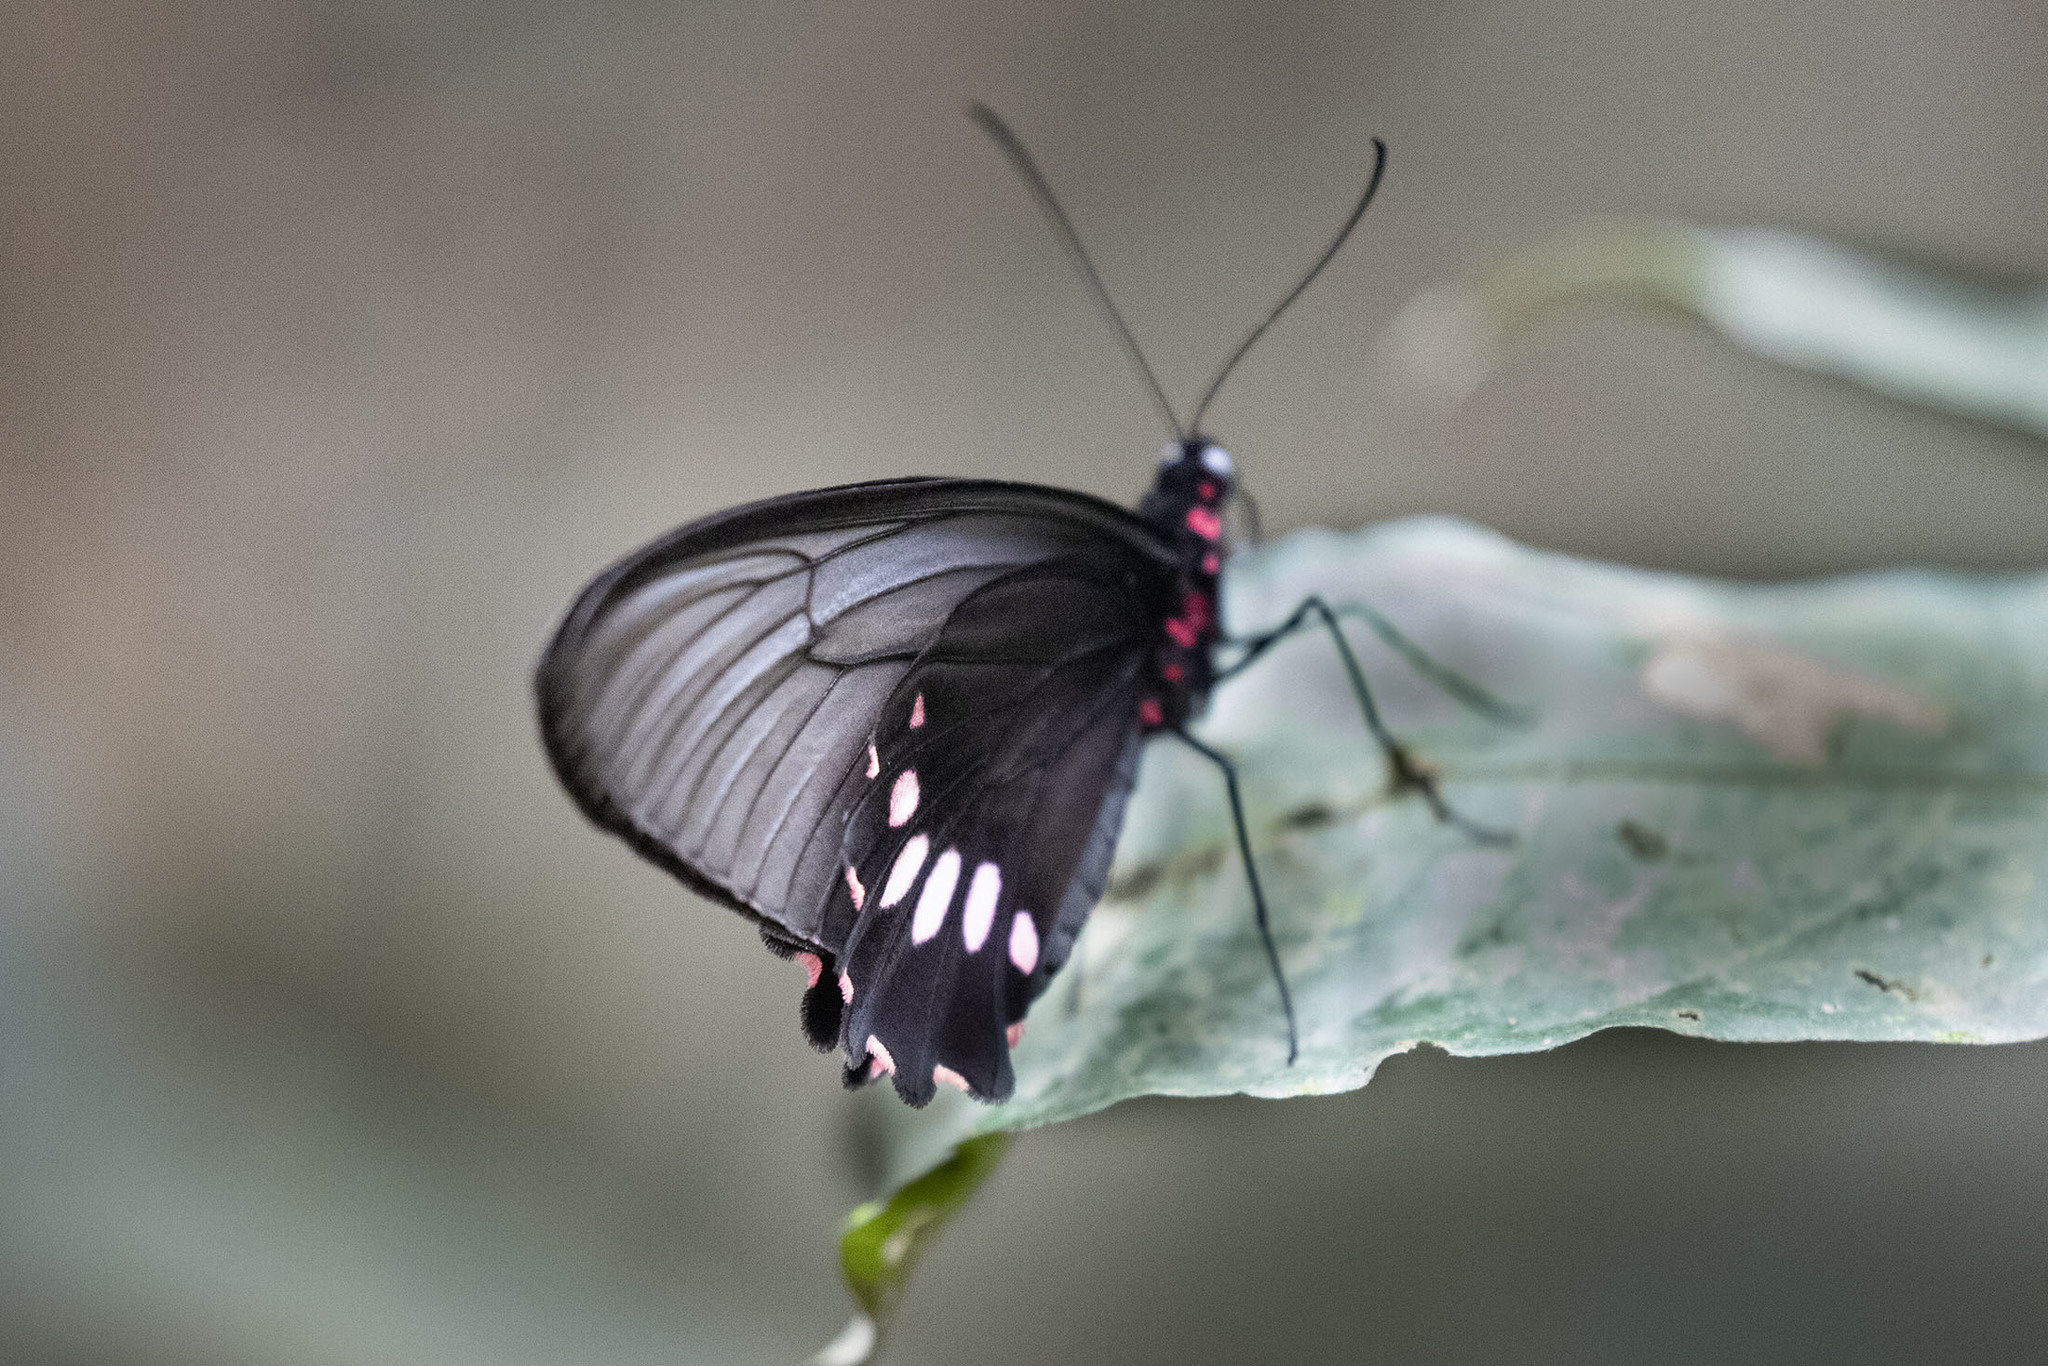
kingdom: Animalia
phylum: Arthropoda
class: Insecta
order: Lepidoptera
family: Papilionidae
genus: Parides
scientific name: Parides neophilus
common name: Spear-winged cattle heart
